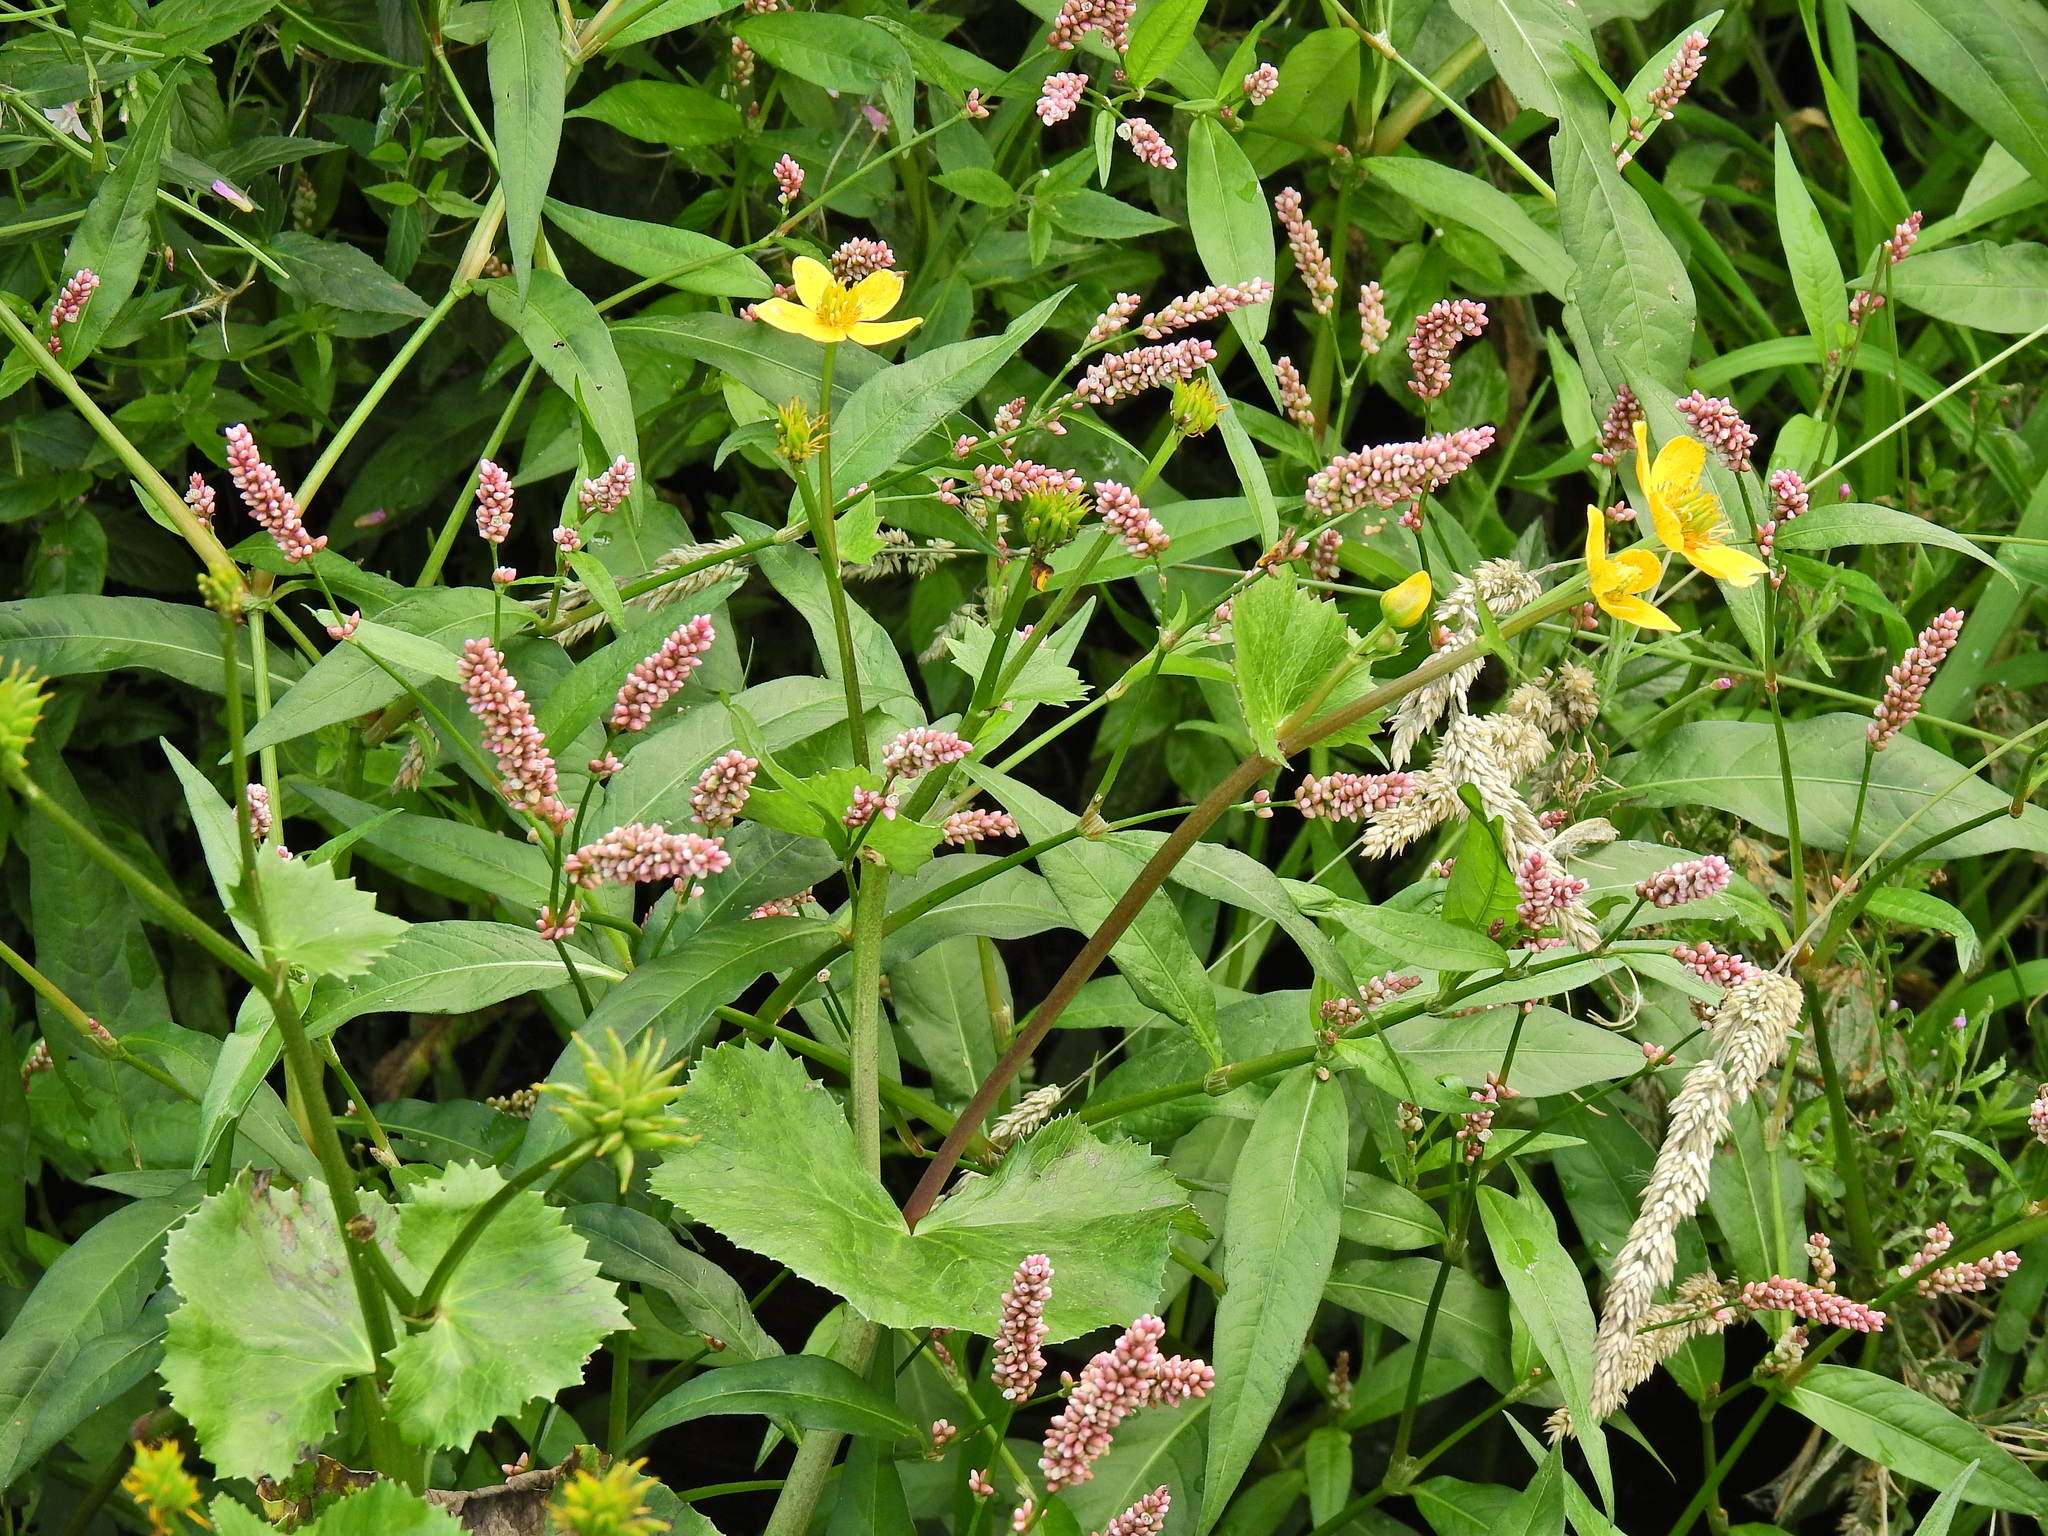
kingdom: Plantae
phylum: Tracheophyta
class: Magnoliopsida
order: Ranunculales
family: Ranunculaceae
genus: Caltha
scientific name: Caltha palustris
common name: Marsh marigold
